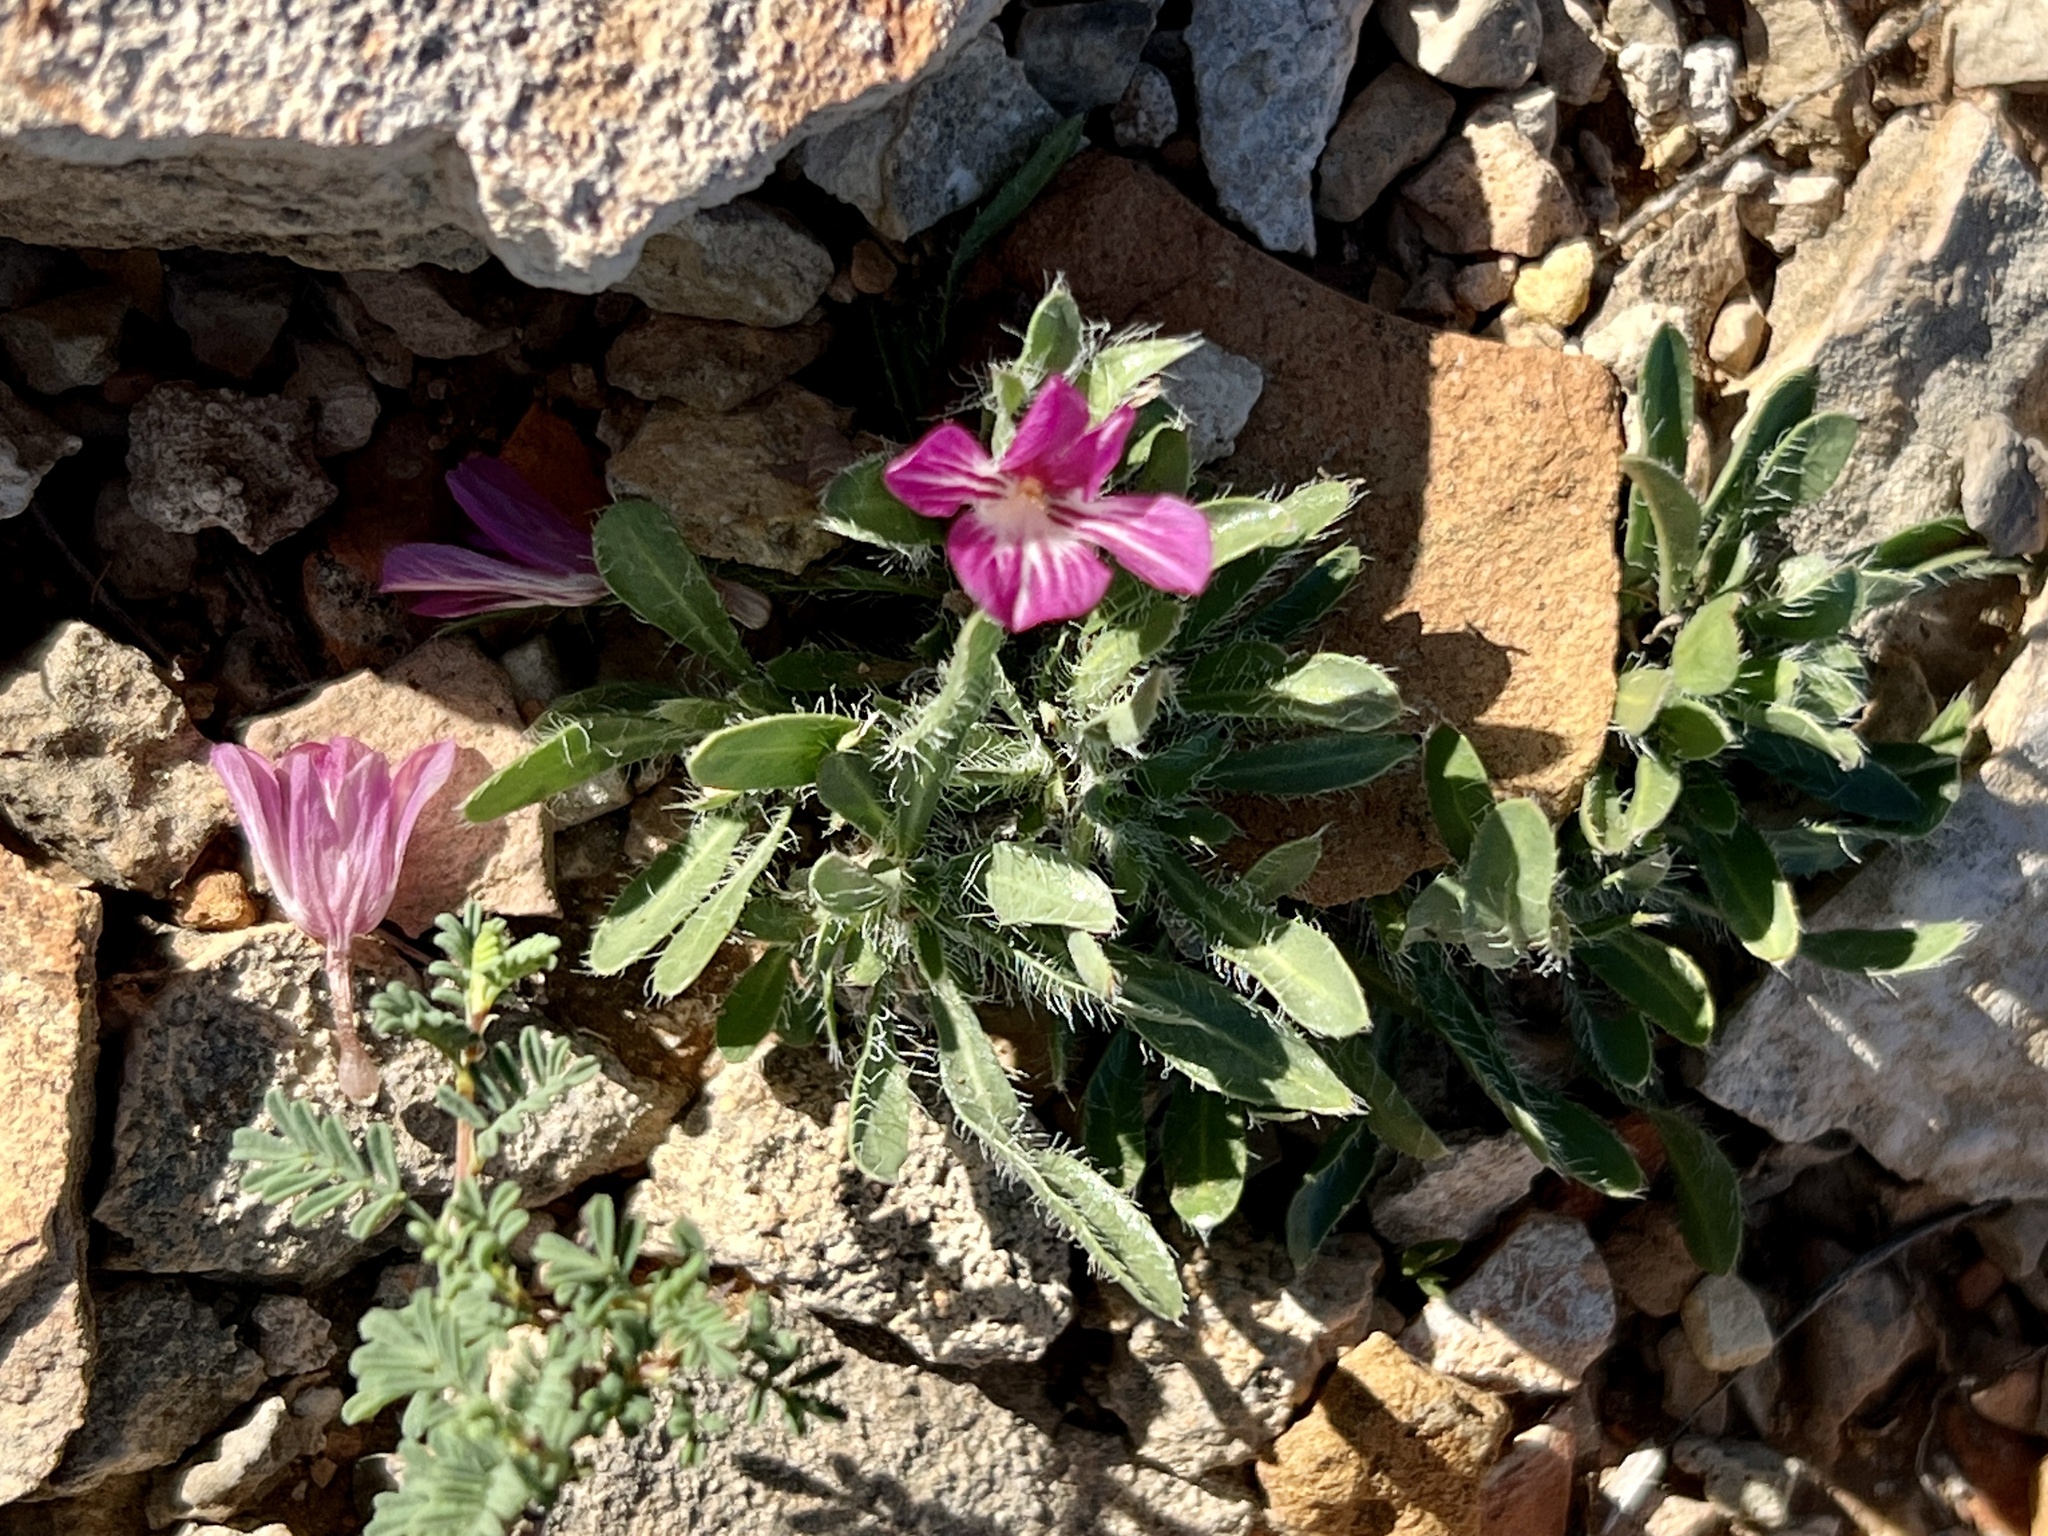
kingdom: Plantae
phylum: Tracheophyta
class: Magnoliopsida
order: Lamiales
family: Acanthaceae
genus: Stenandrium
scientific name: Stenandrium barbatum
